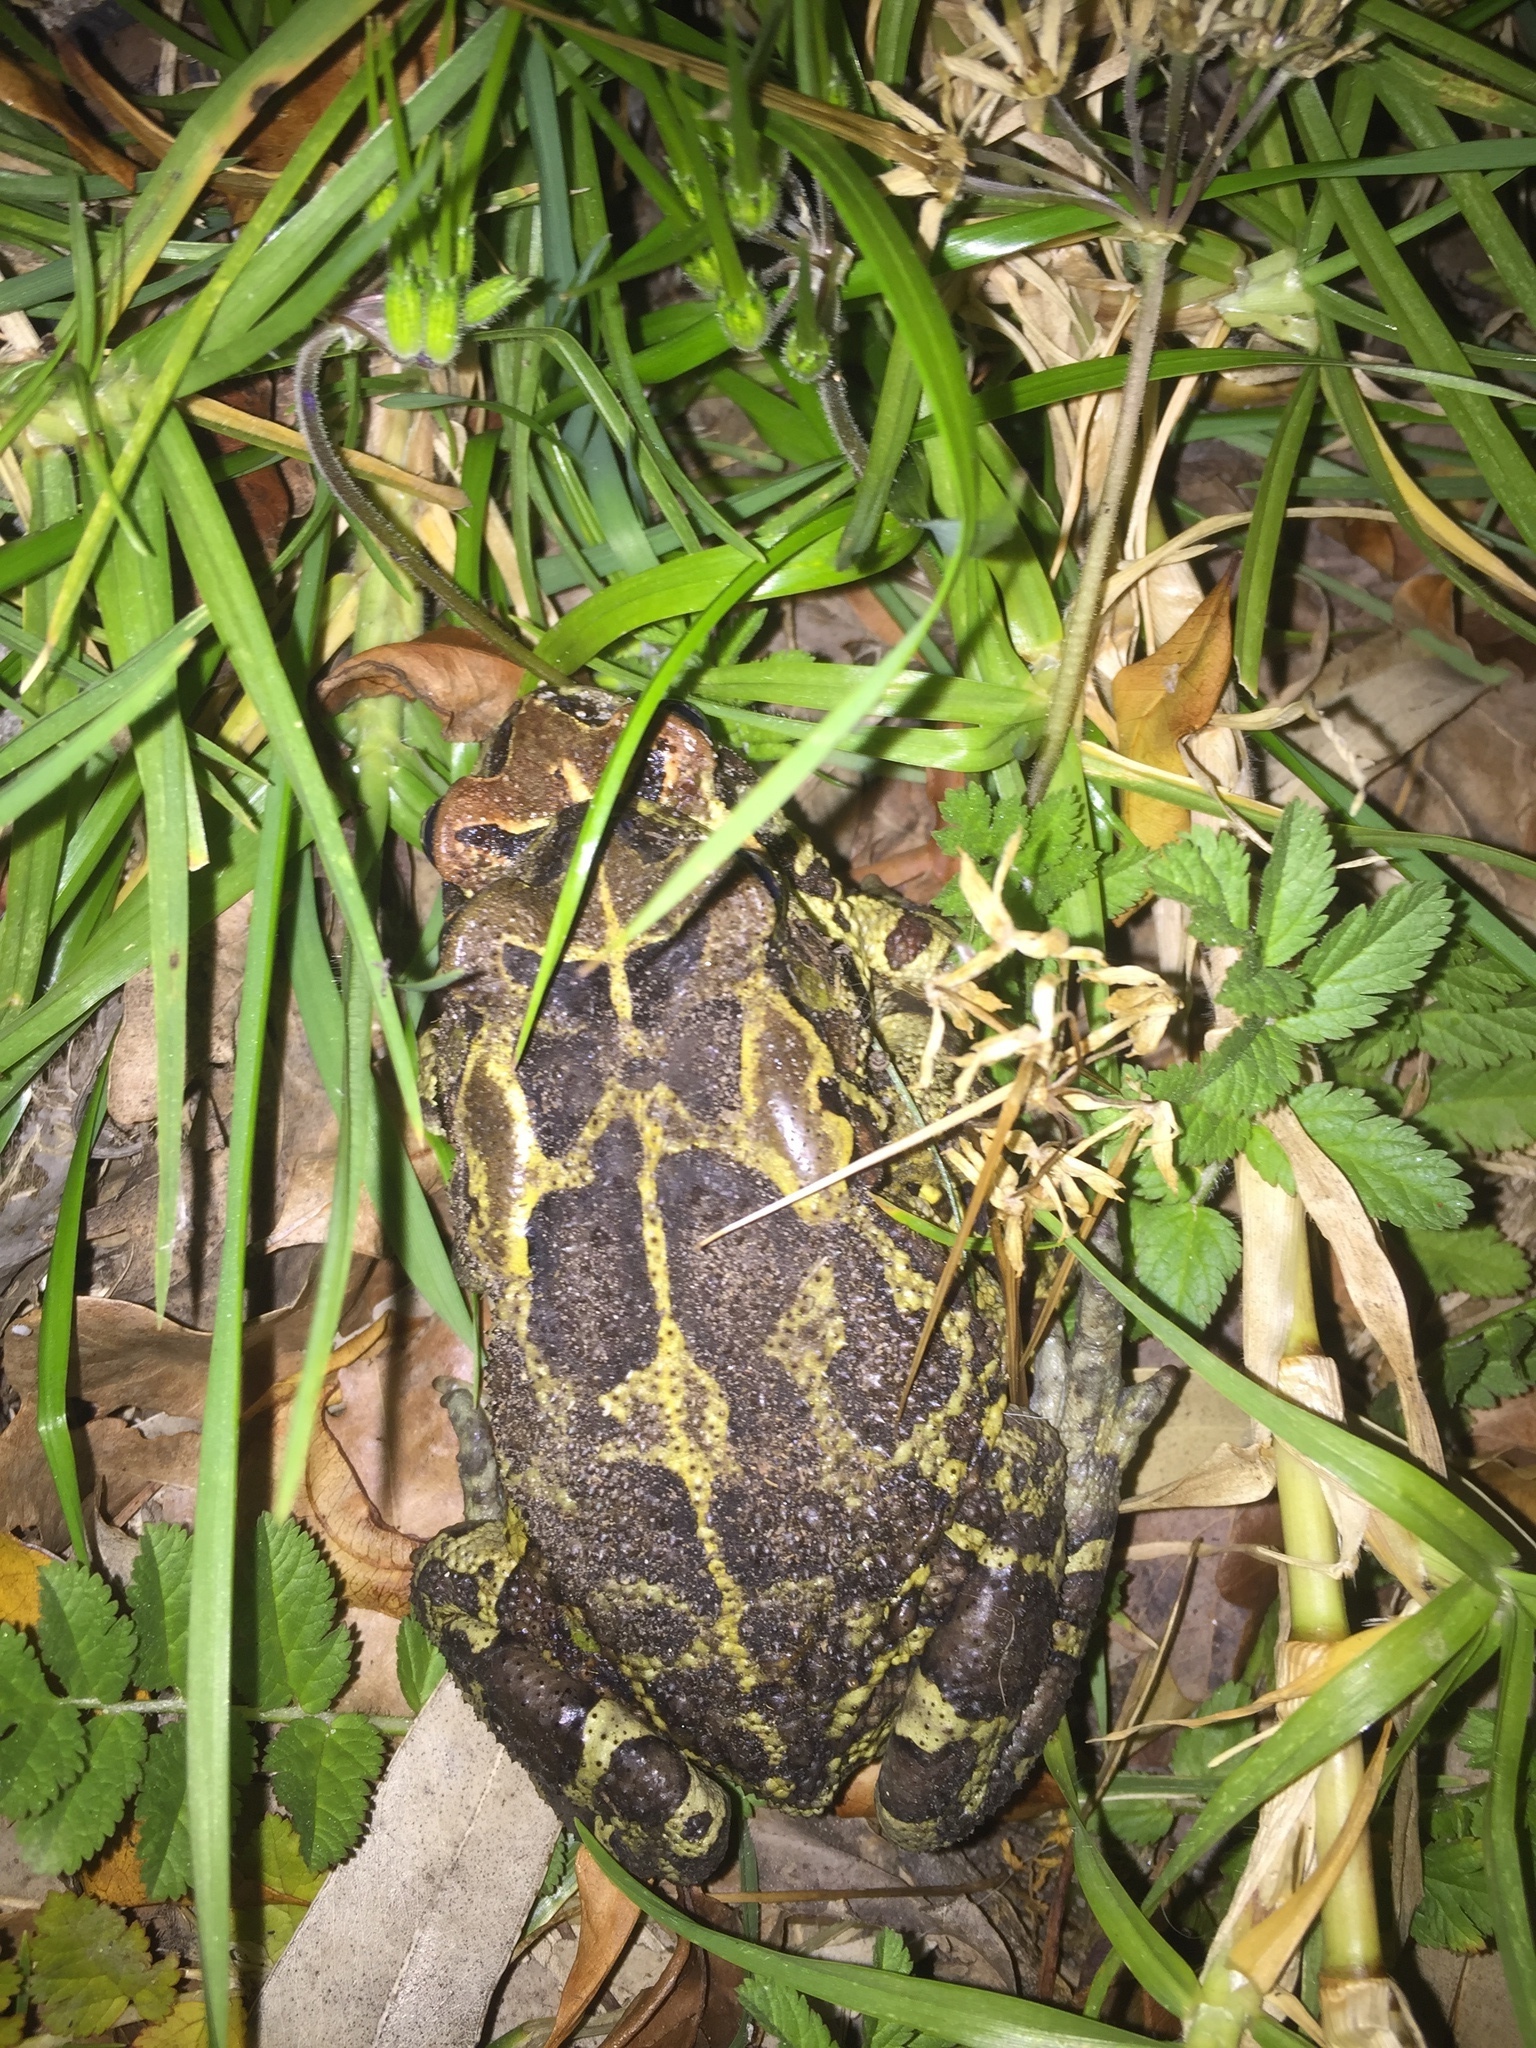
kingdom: Animalia
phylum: Chordata
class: Amphibia
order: Anura
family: Bufonidae
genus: Sclerophrys
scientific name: Sclerophrys pantherina
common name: Panther toad
